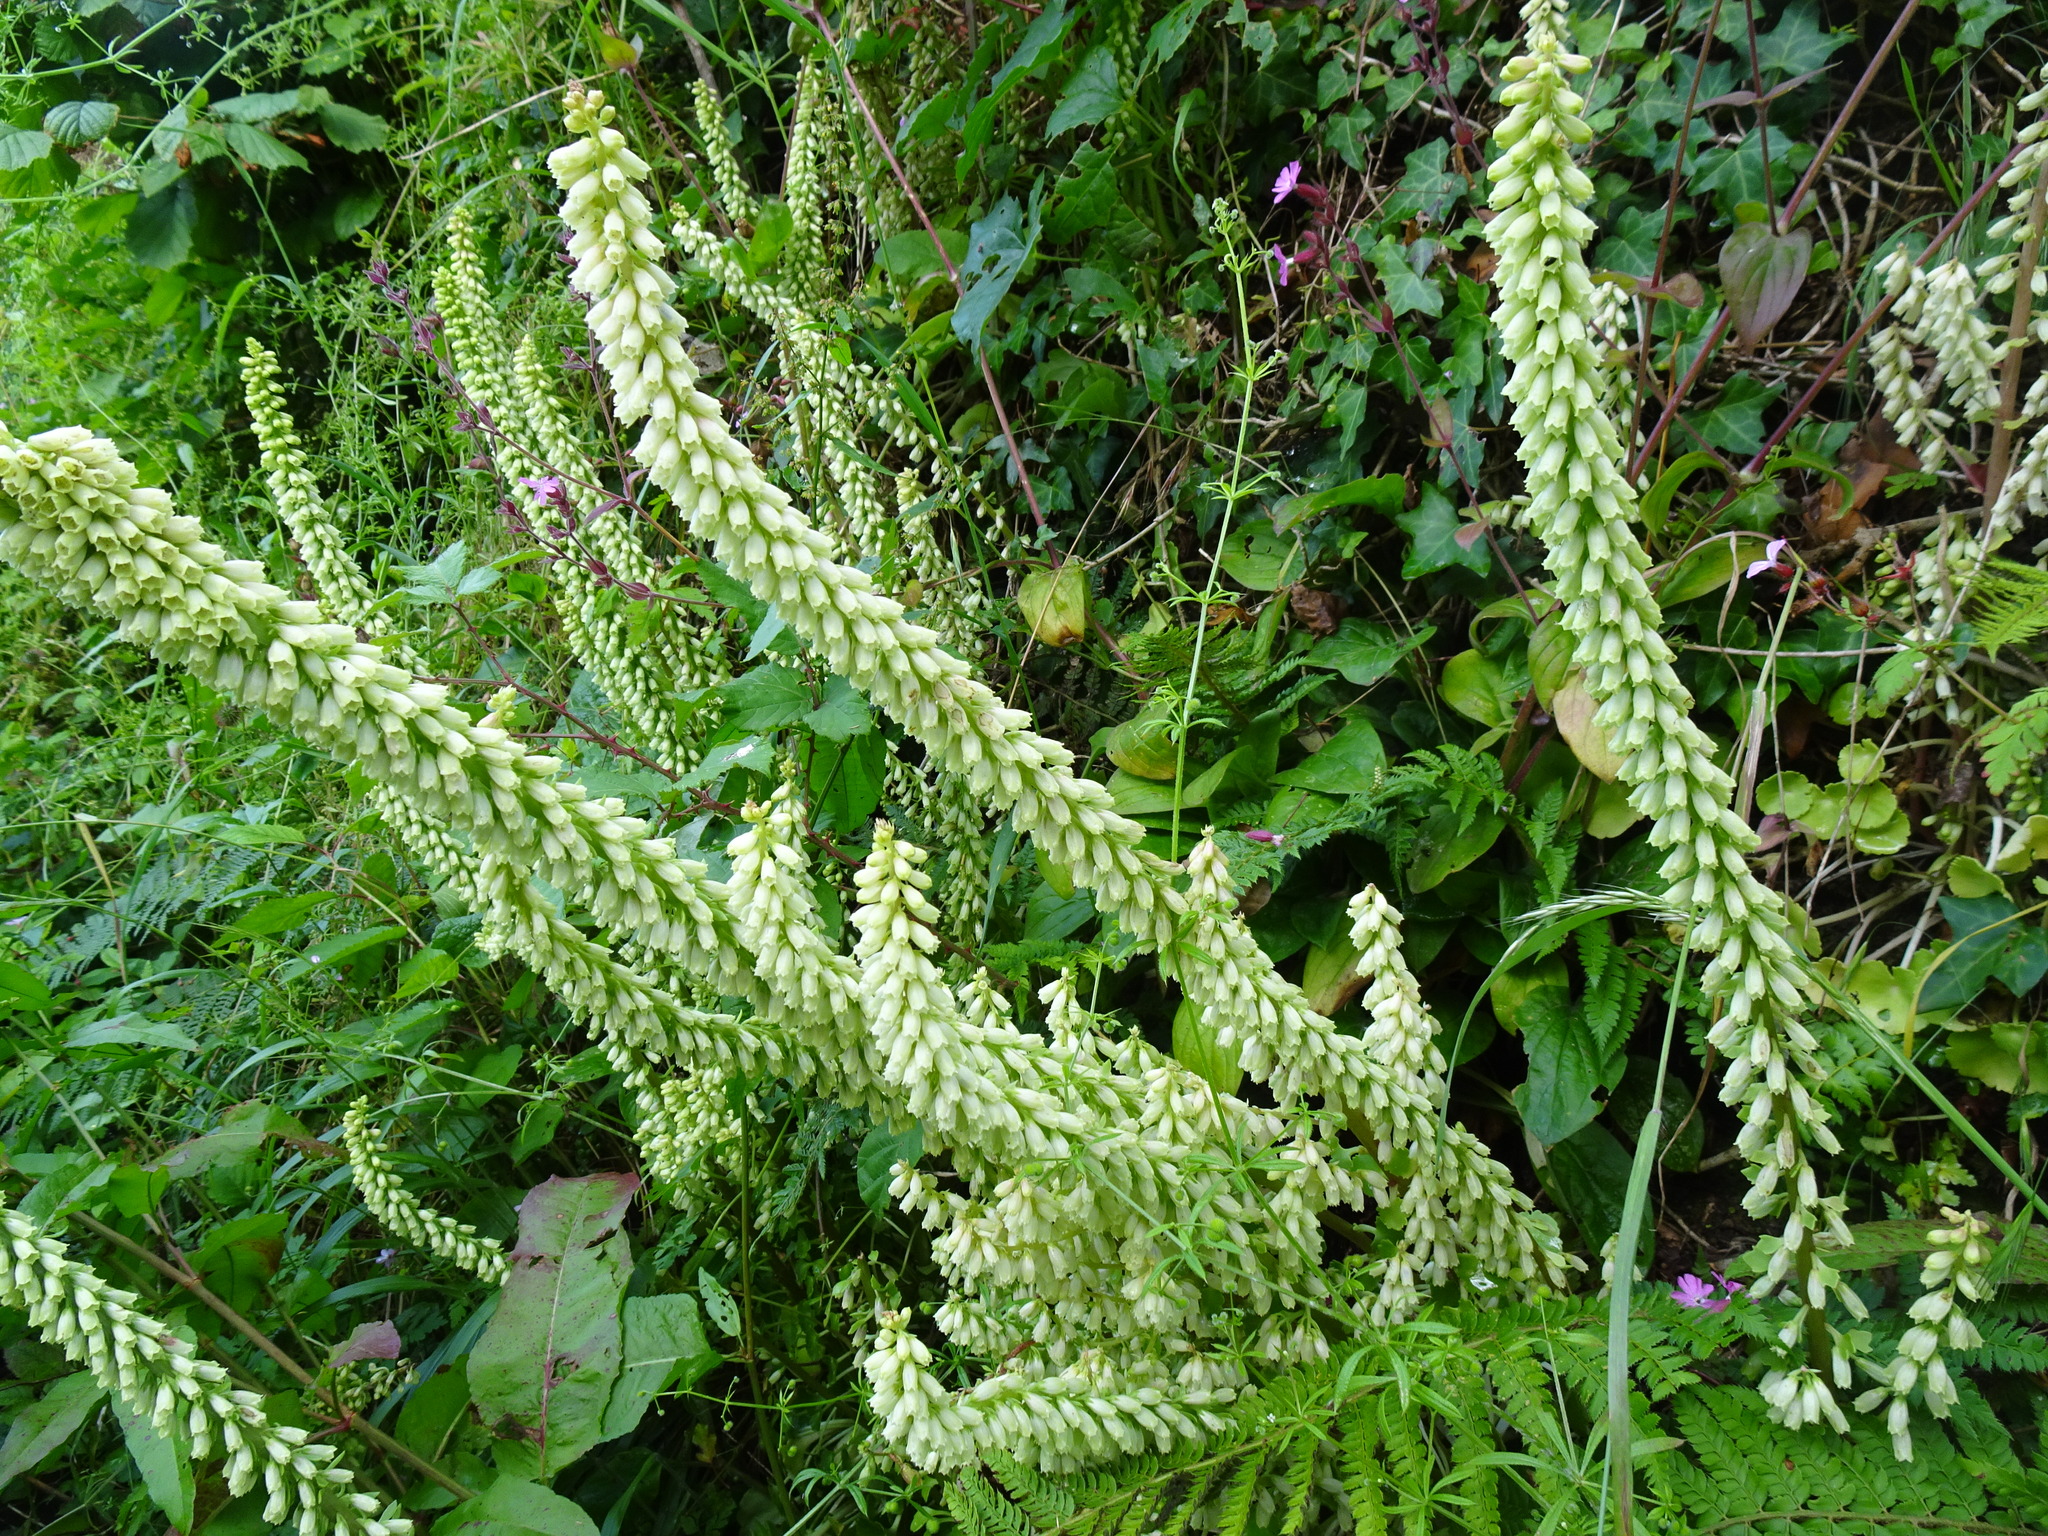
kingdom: Plantae
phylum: Tracheophyta
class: Magnoliopsida
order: Saxifragales
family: Crassulaceae
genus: Umbilicus
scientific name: Umbilicus rupestris
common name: Navelwort
